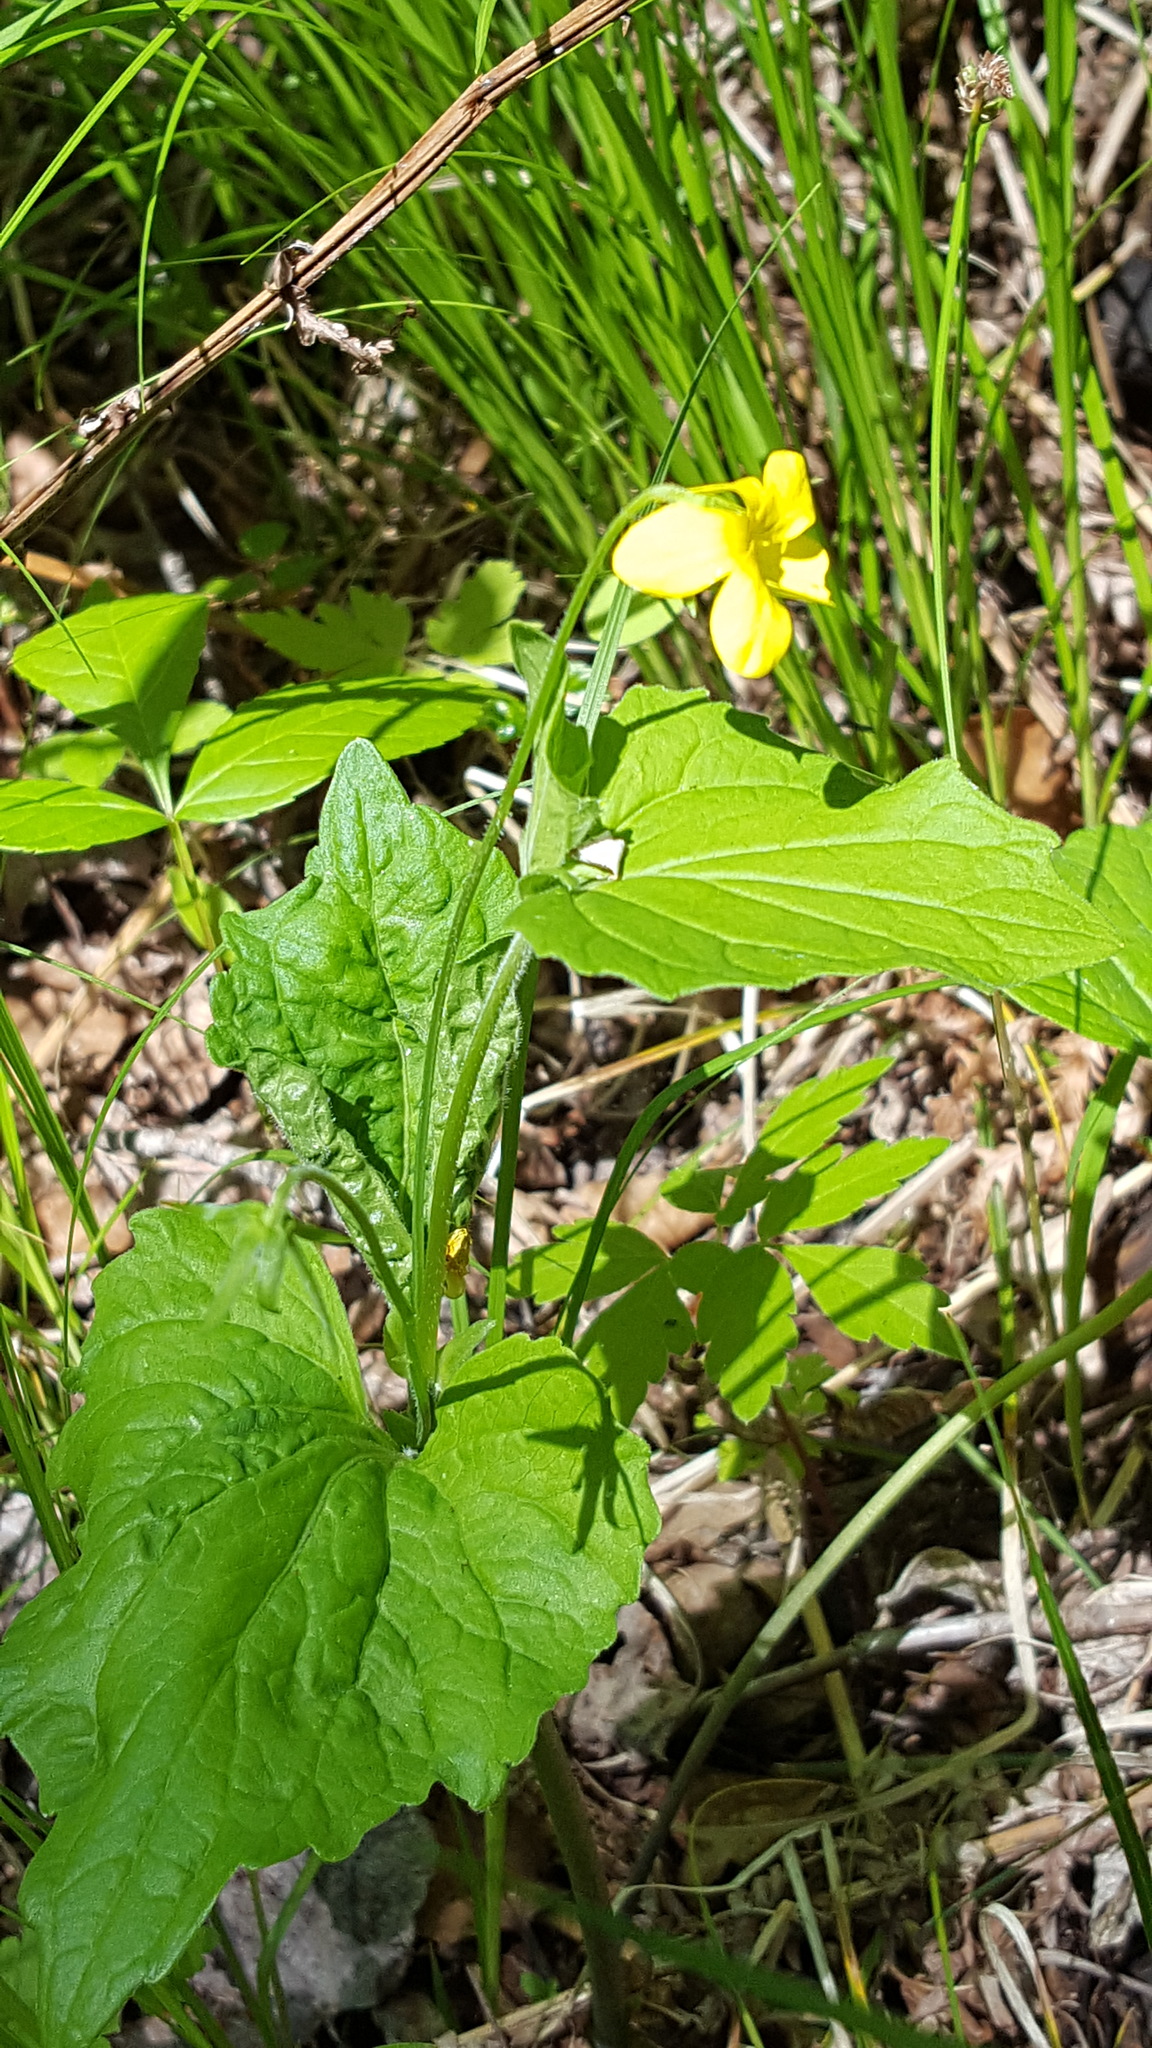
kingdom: Plantae
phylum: Tracheophyta
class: Magnoliopsida
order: Malpighiales
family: Violaceae
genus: Viola
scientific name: Viola eriocarpa
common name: Smooth yellow violet
